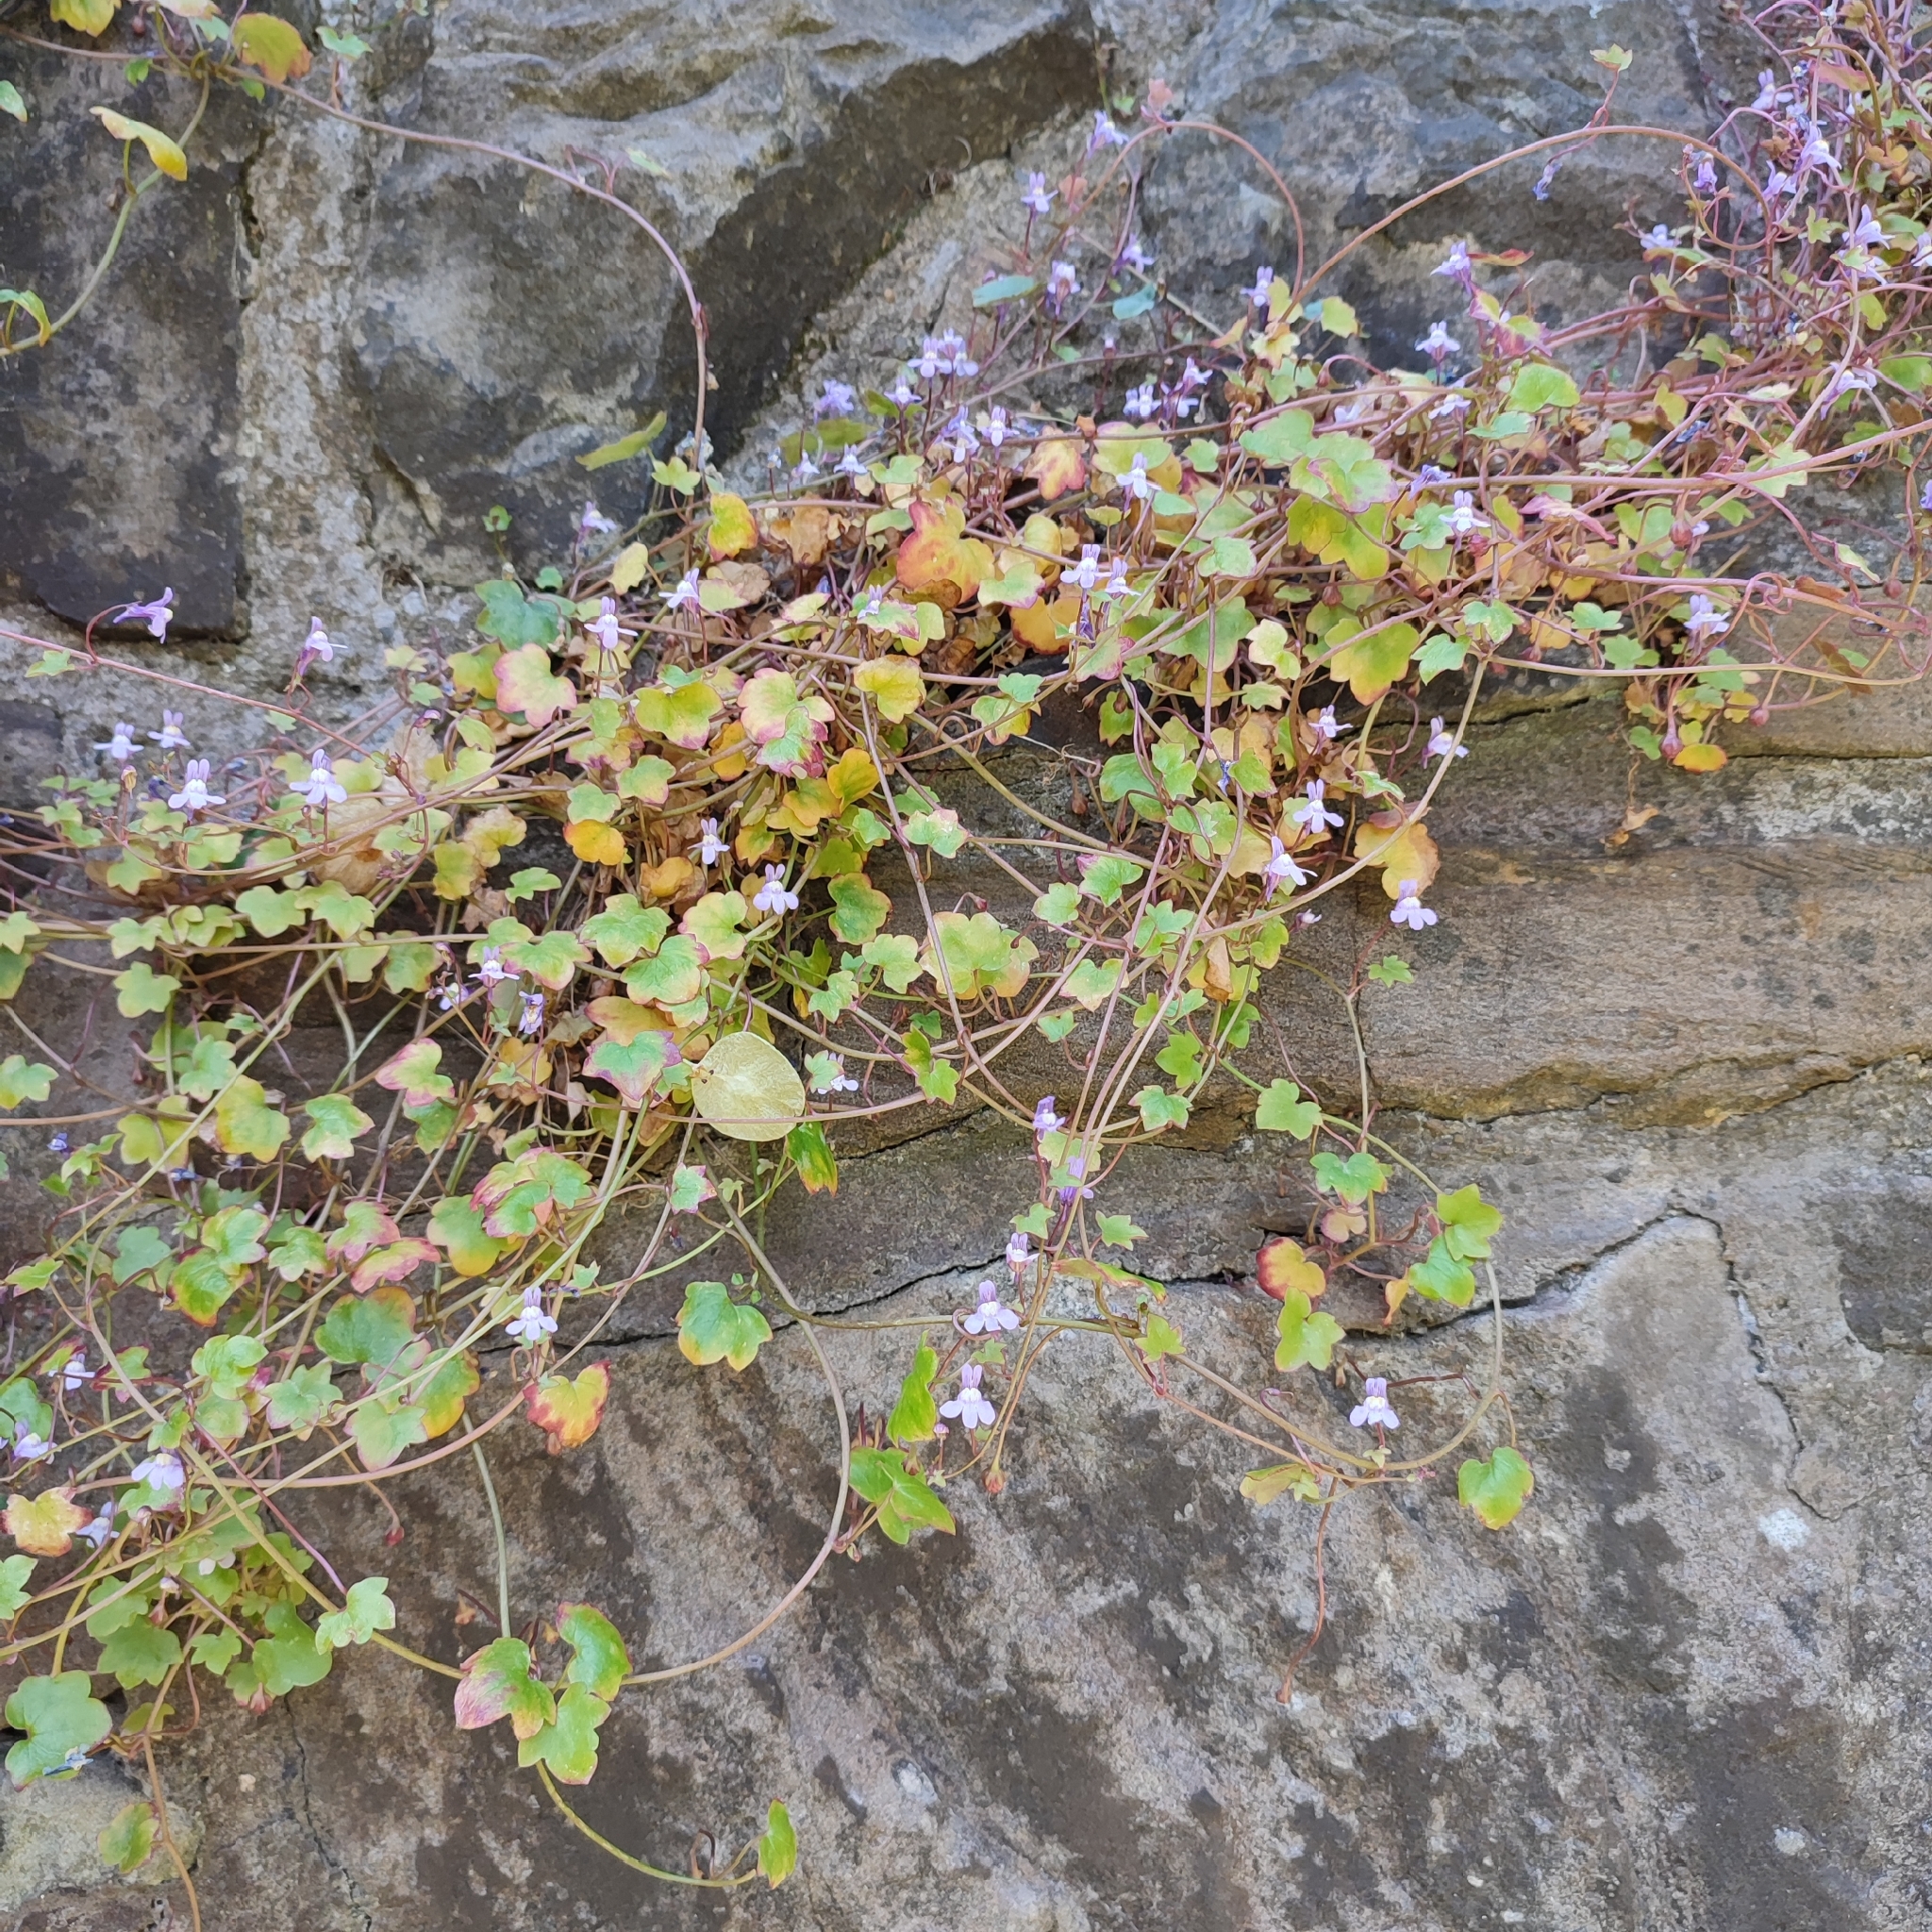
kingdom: Plantae
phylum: Tracheophyta
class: Magnoliopsida
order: Lamiales
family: Plantaginaceae
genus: Cymbalaria
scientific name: Cymbalaria muralis
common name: Ivy-leaved toadflax
